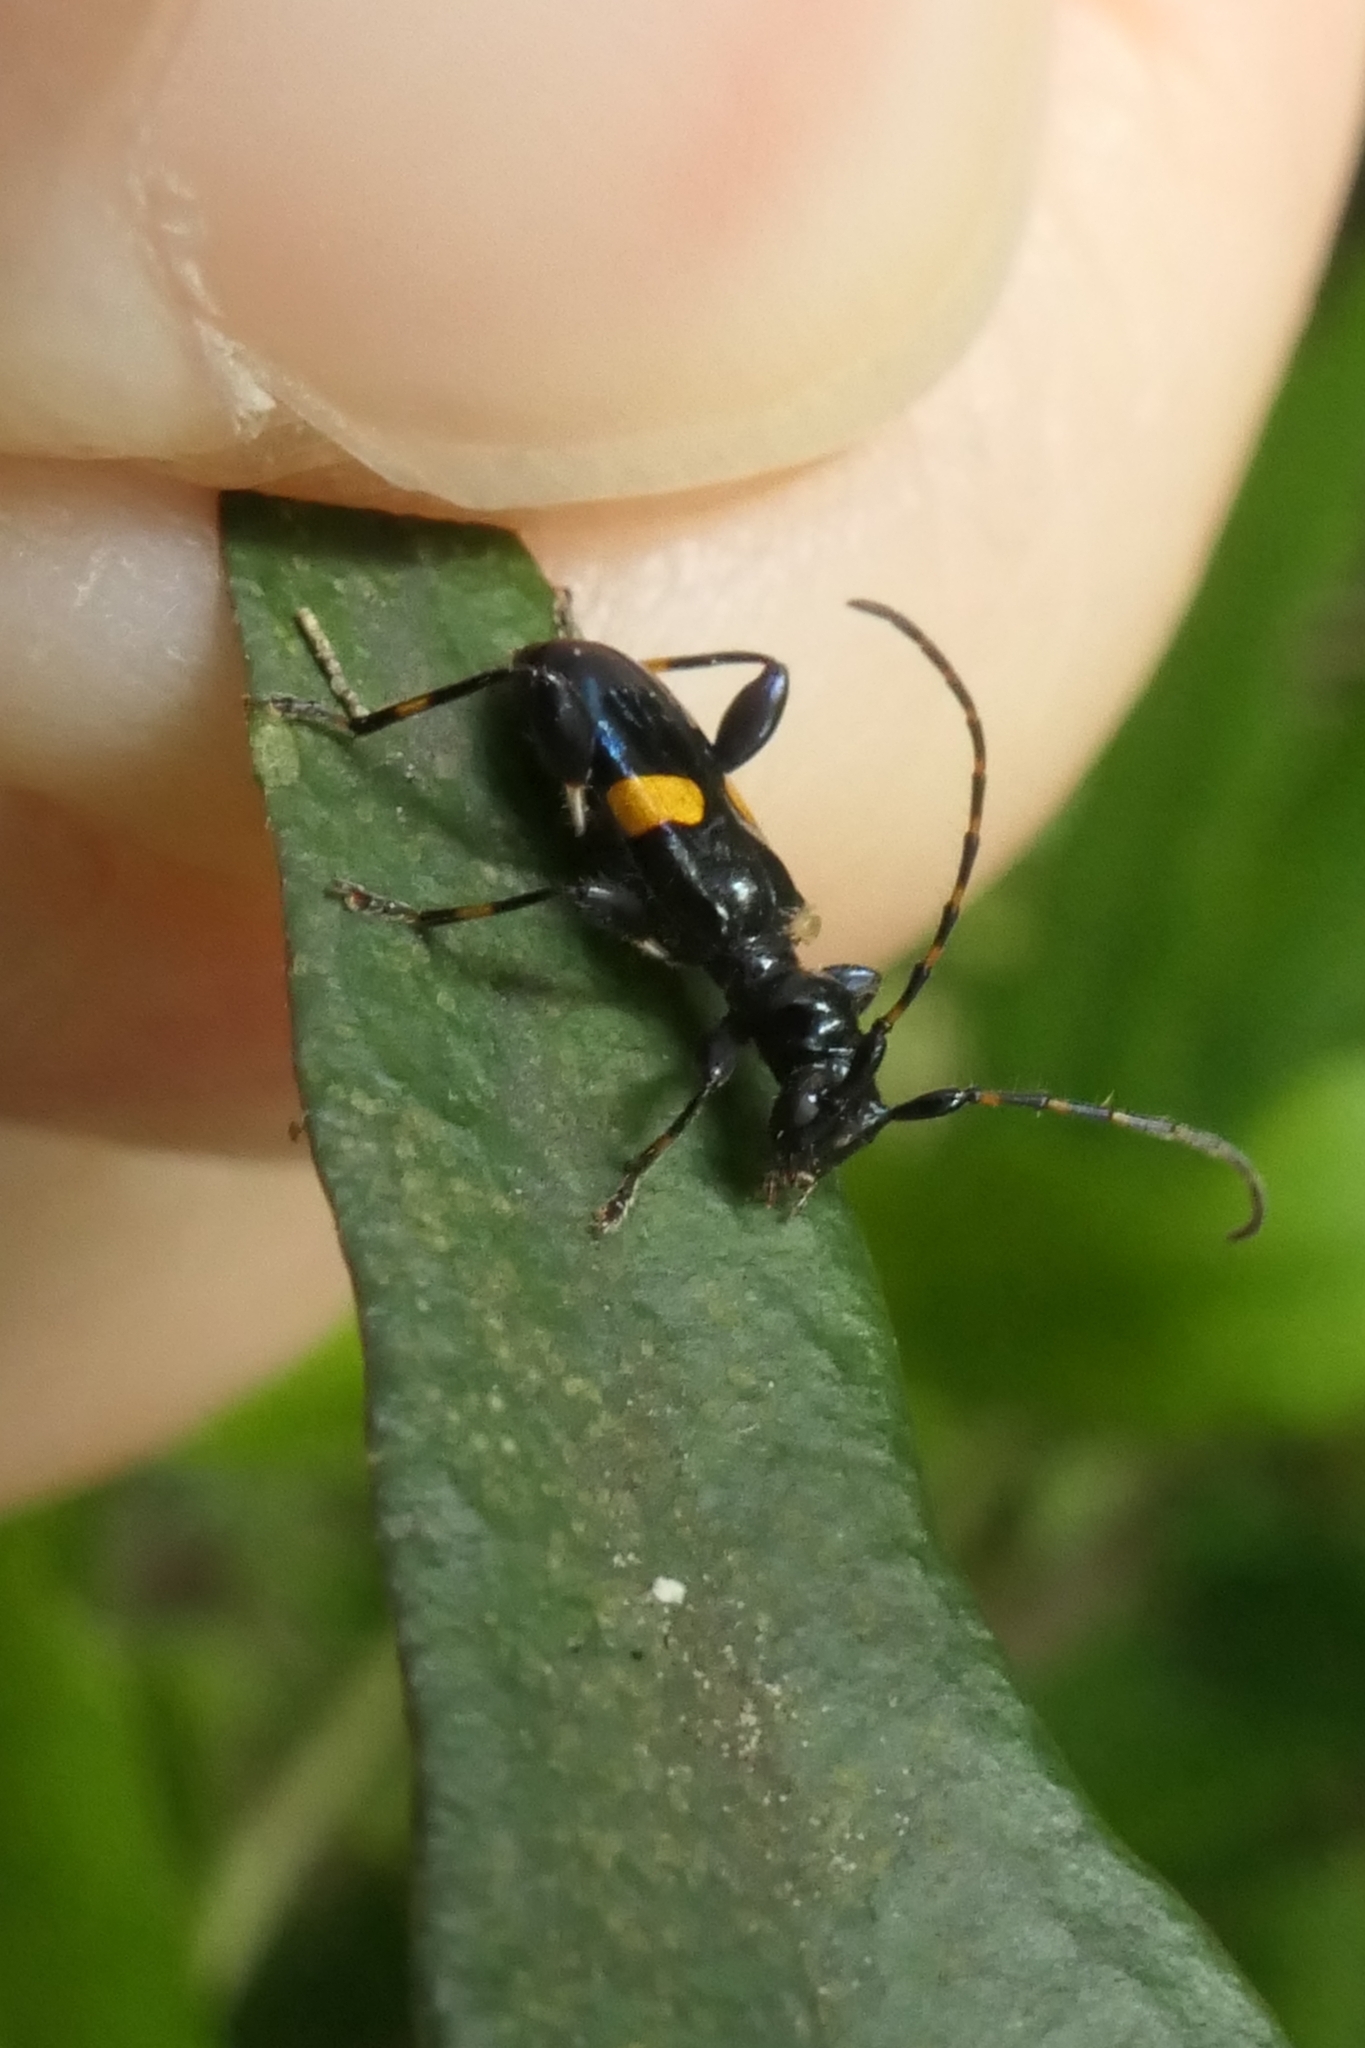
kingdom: Animalia
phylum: Arthropoda
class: Insecta
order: Coleoptera
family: Cerambycidae
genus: Zorion
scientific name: Zorion guttigerum
